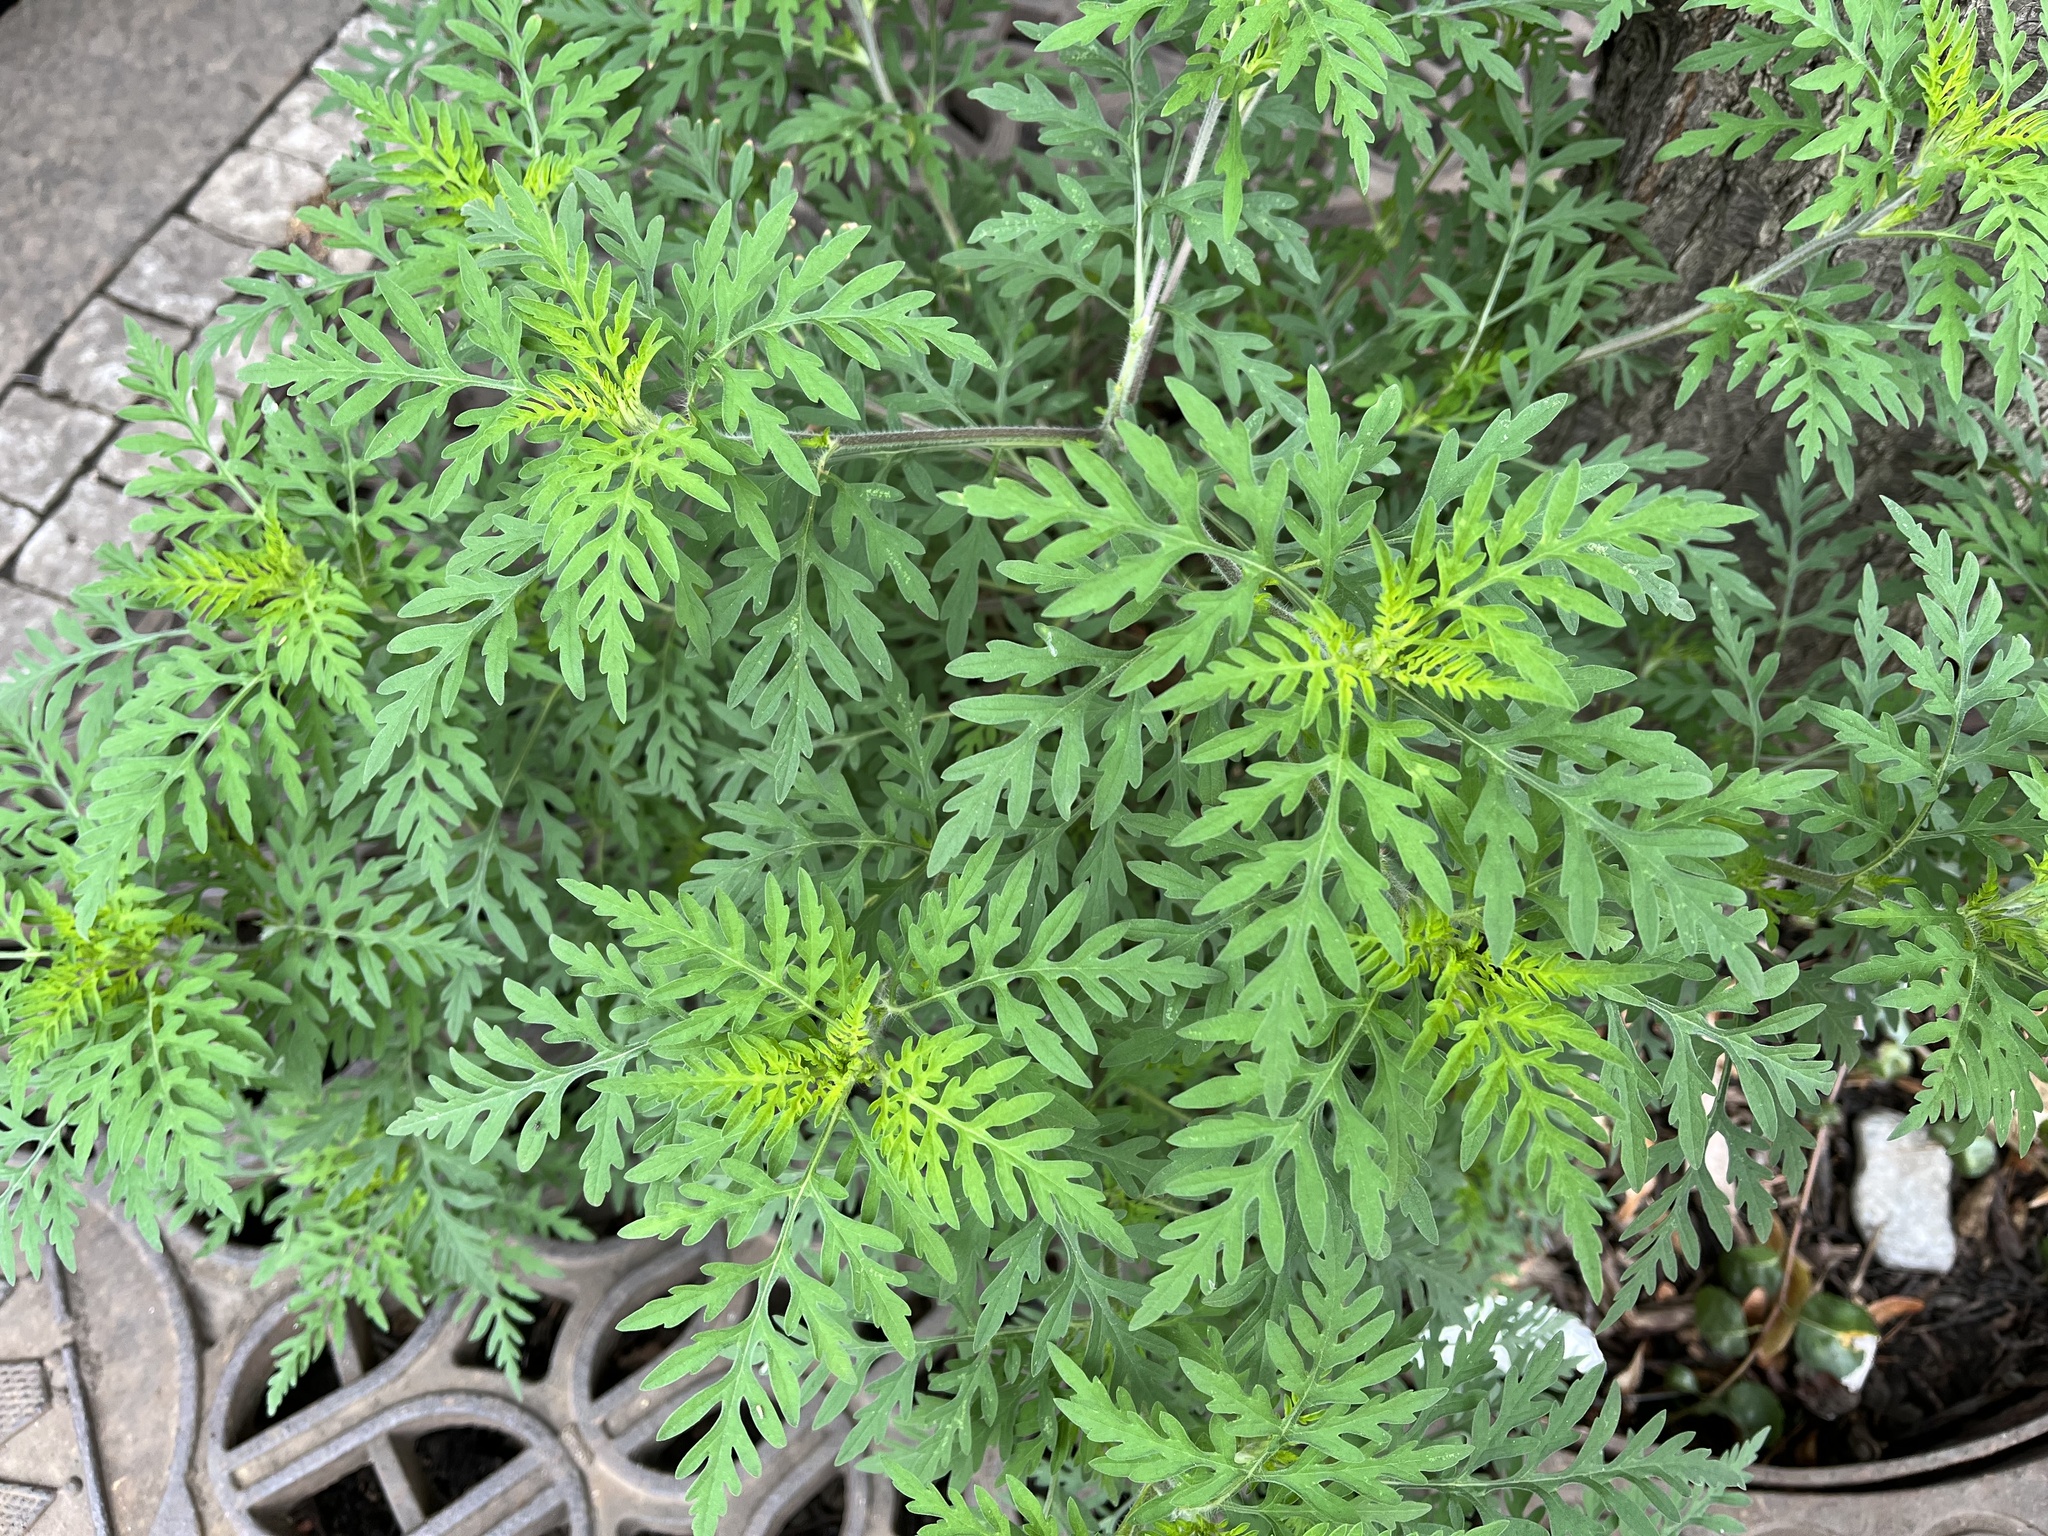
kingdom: Plantae
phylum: Tracheophyta
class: Magnoliopsida
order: Asterales
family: Asteraceae
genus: Ambrosia
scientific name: Ambrosia artemisiifolia
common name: Annual ragweed
